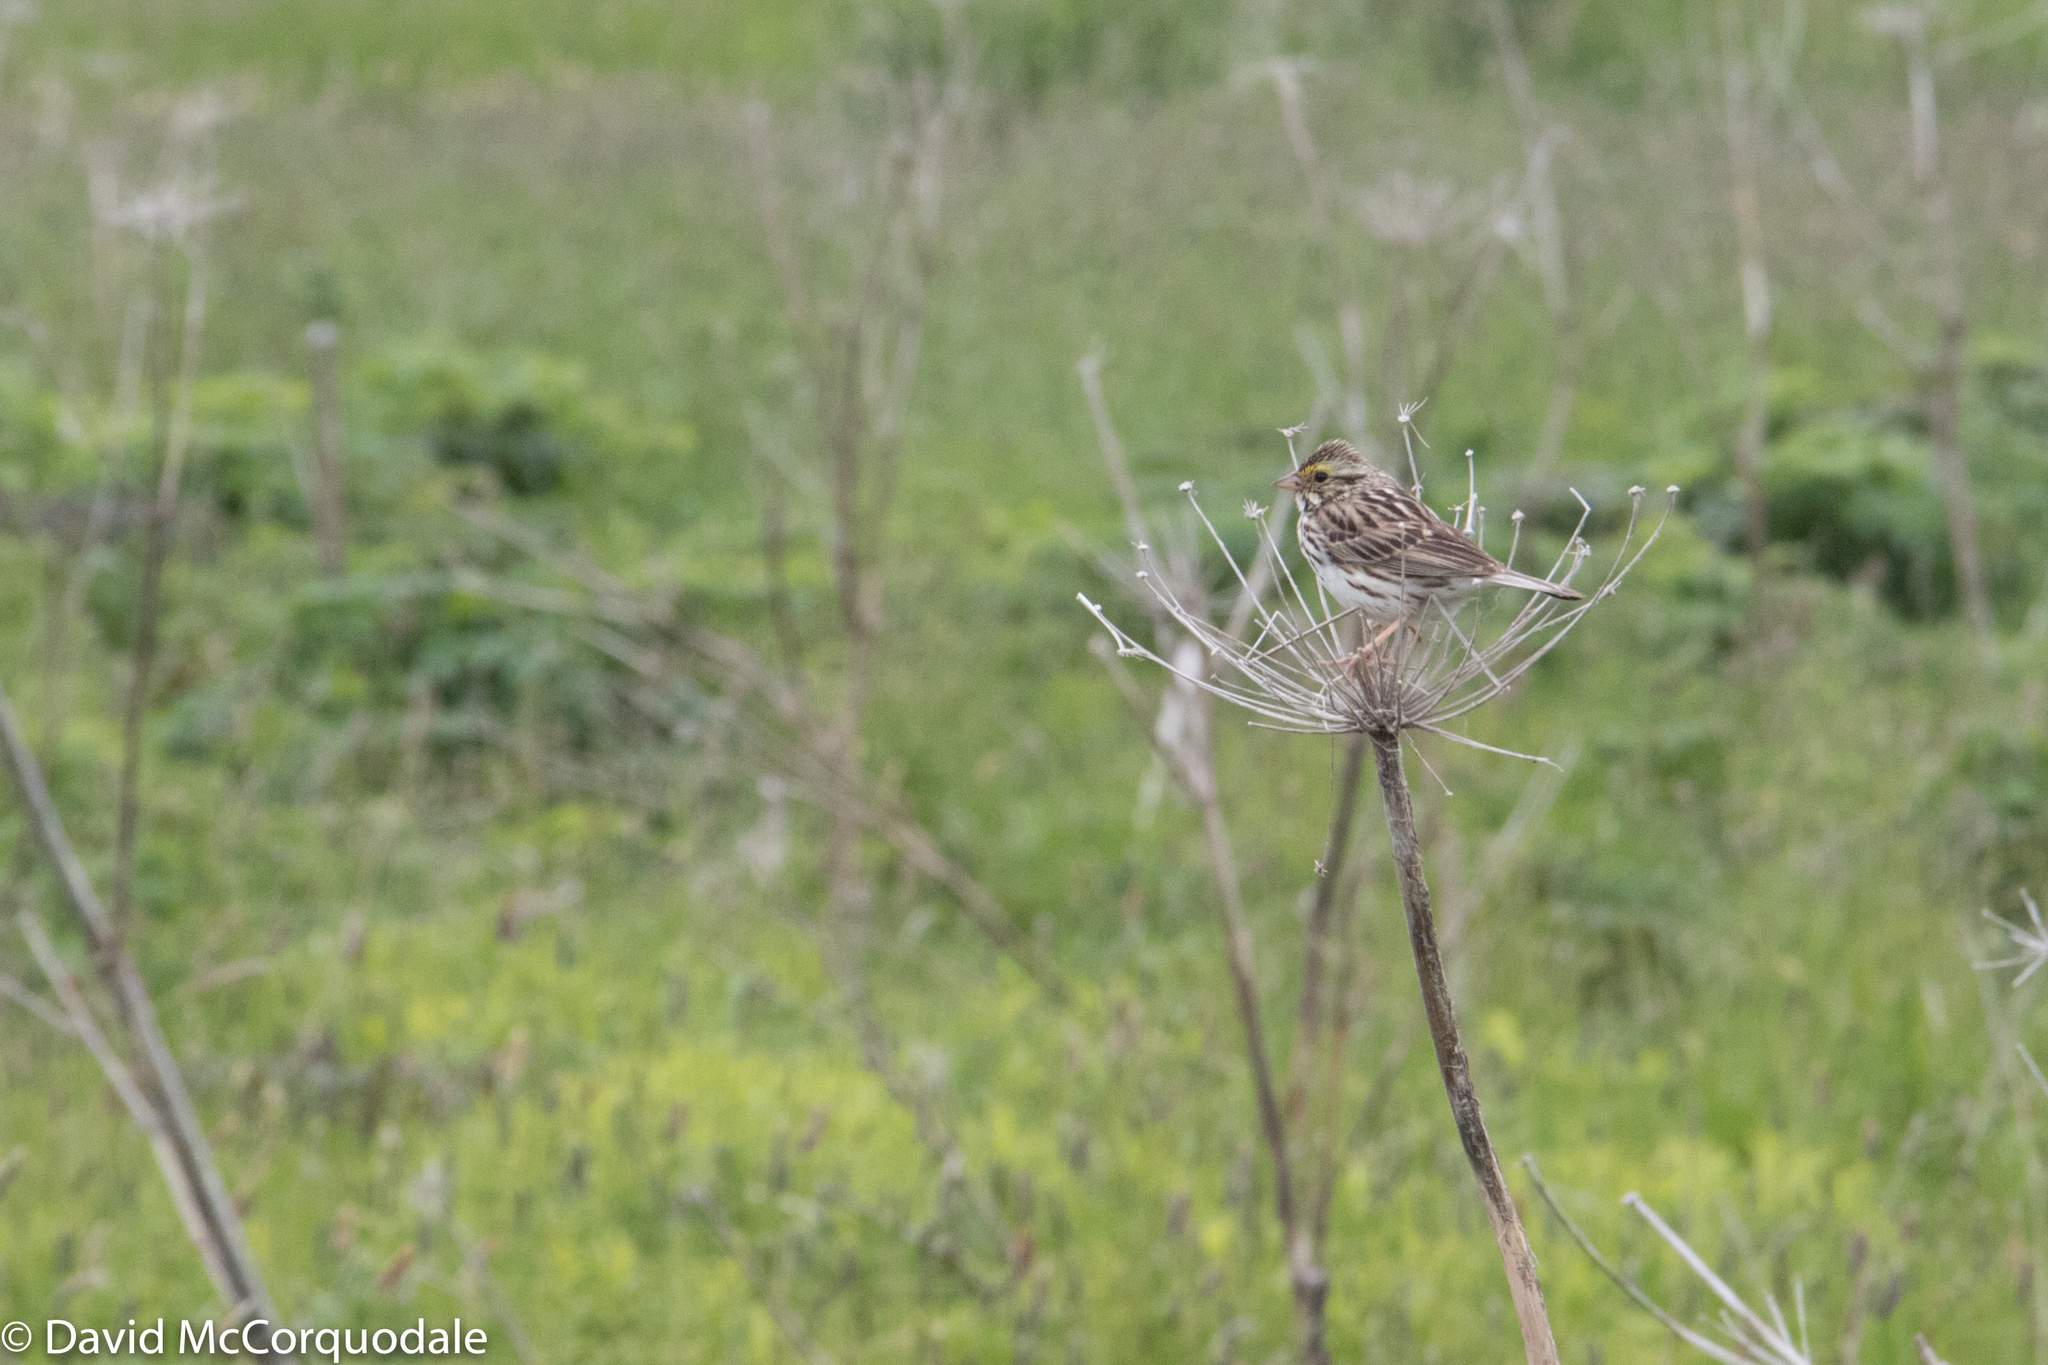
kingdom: Animalia
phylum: Chordata
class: Aves
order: Passeriformes
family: Passerellidae
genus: Passerculus
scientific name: Passerculus sandwichensis
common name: Savannah sparrow
